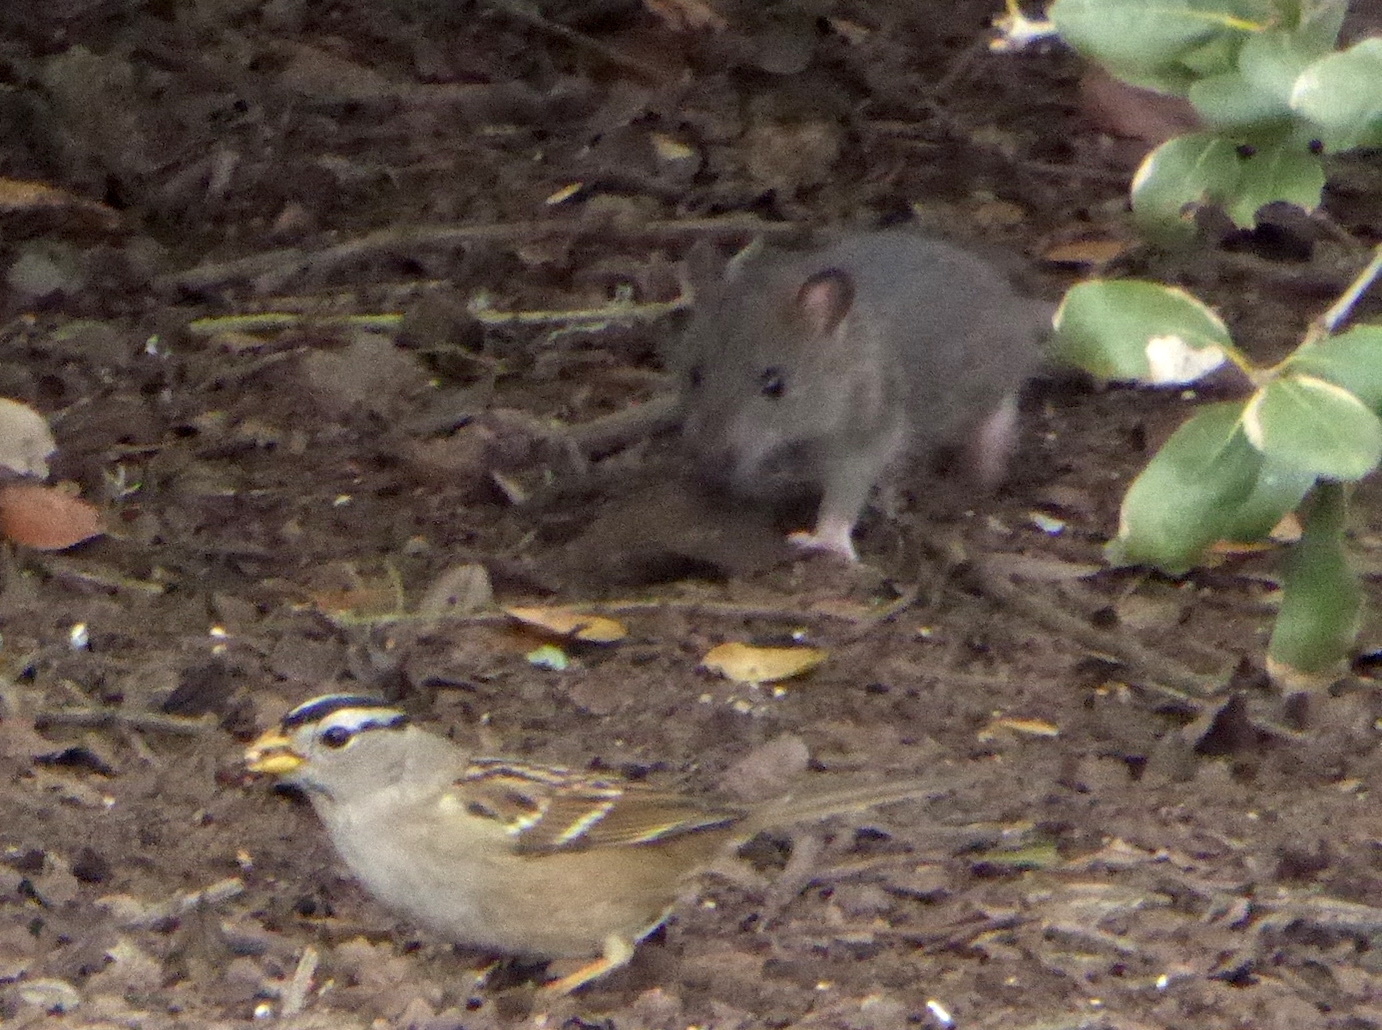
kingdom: Animalia
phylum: Chordata
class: Mammalia
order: Rodentia
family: Muridae
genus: Rattus
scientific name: Rattus rattus
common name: Black rat
